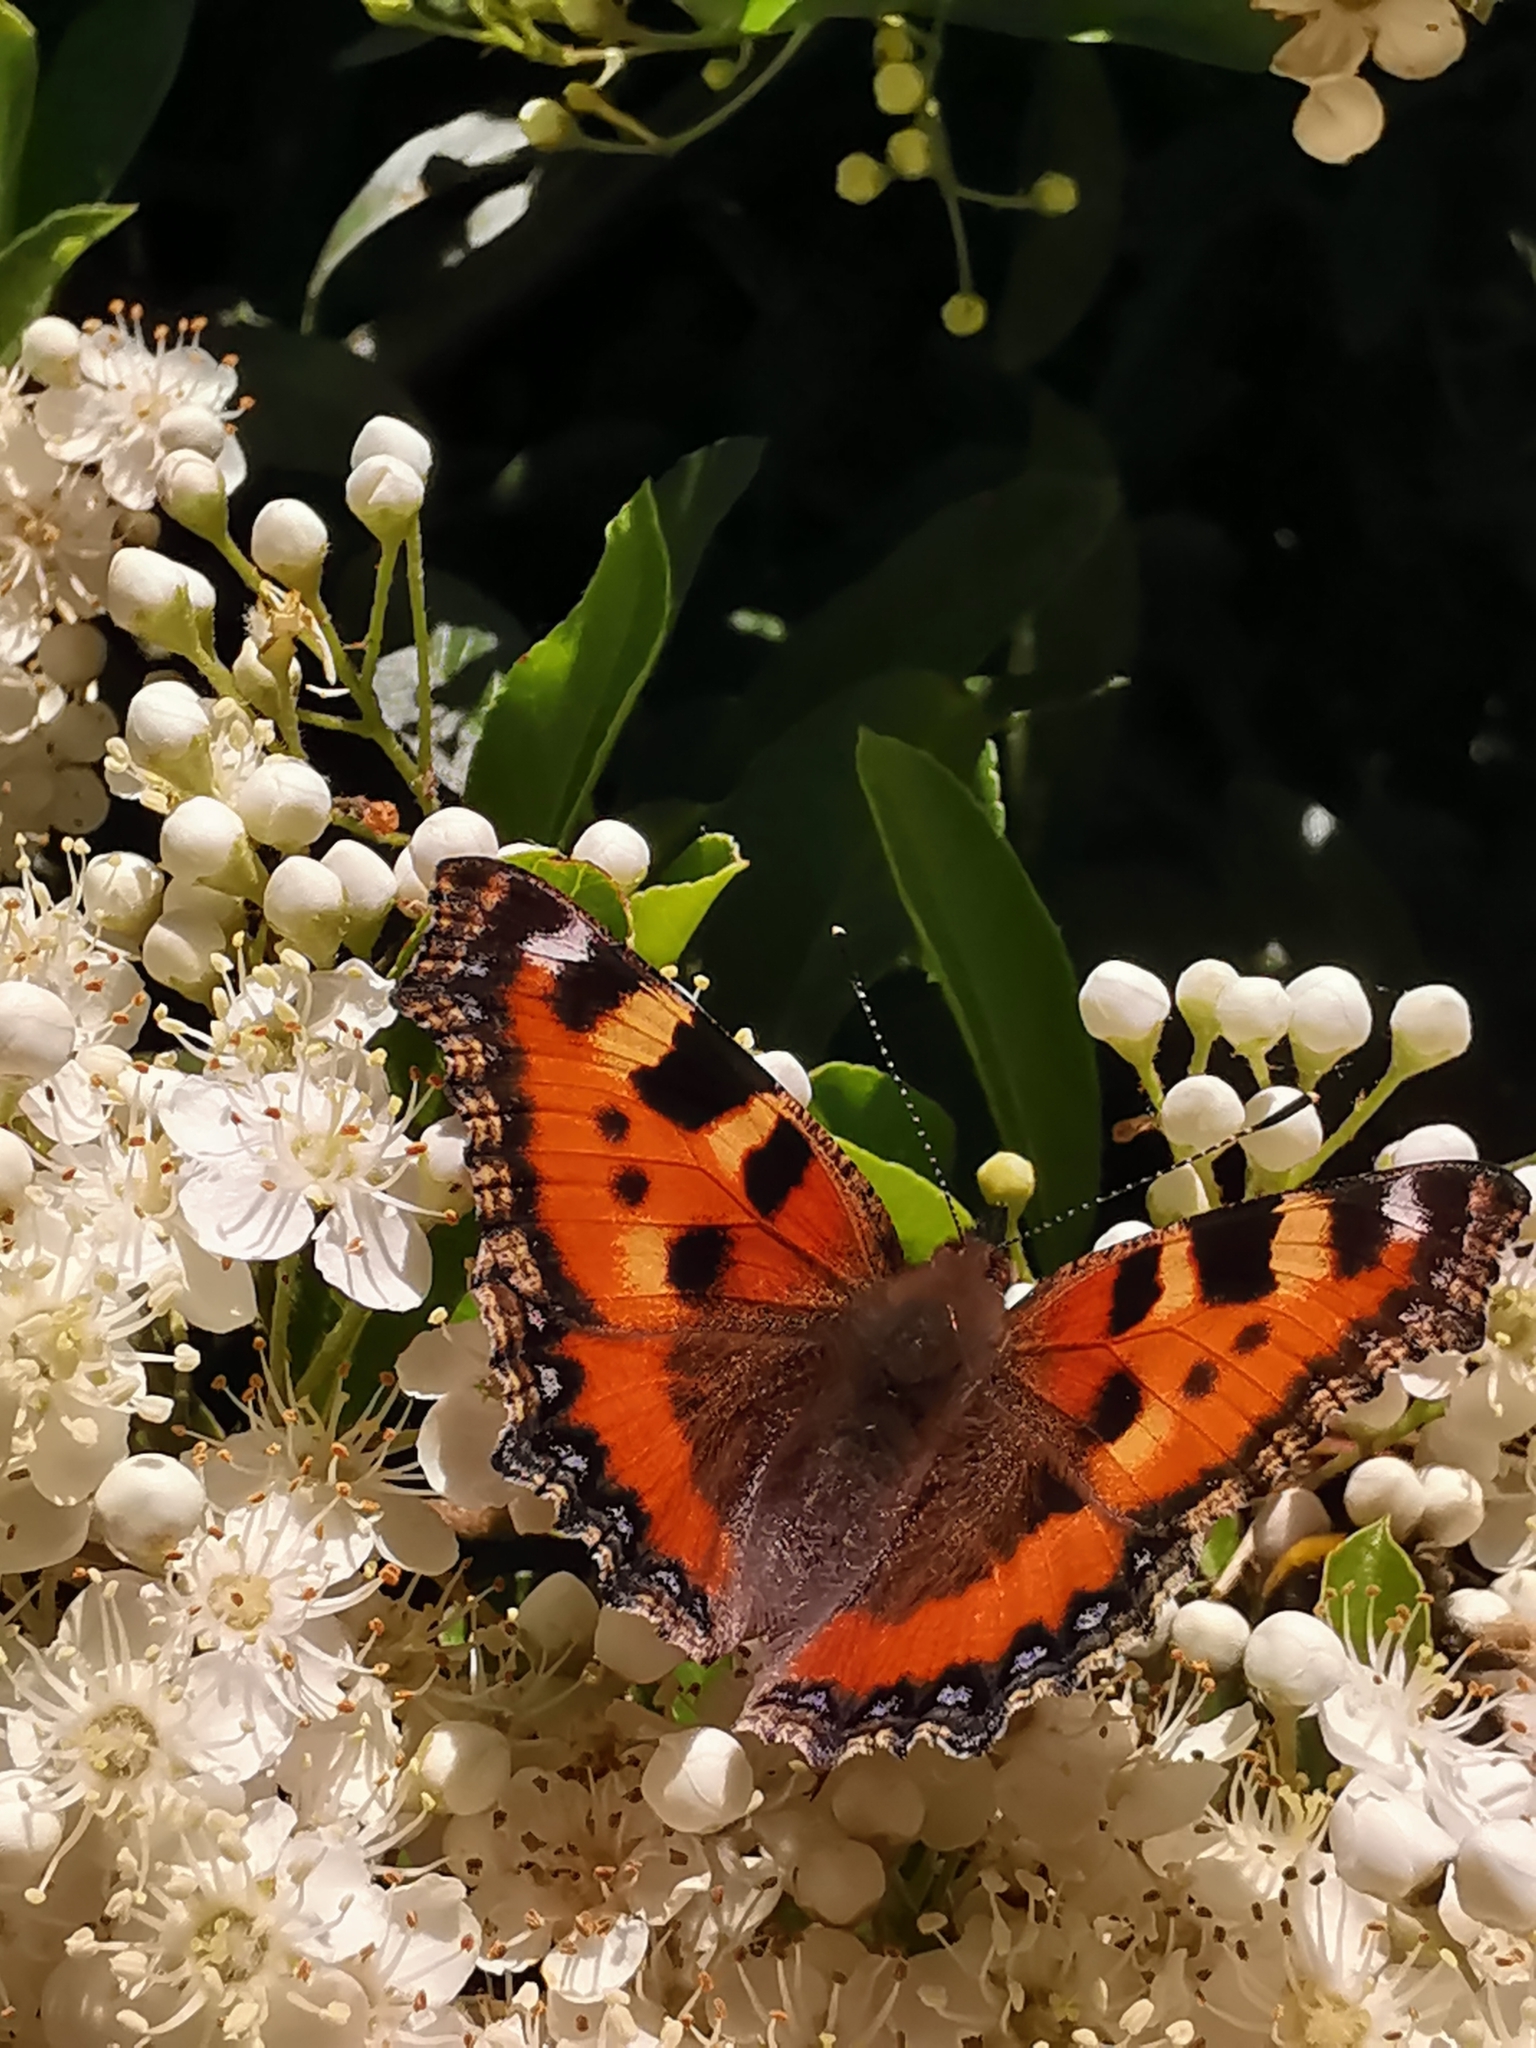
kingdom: Animalia
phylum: Arthropoda
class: Insecta
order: Lepidoptera
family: Nymphalidae
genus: Aglais
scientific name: Aglais urticae
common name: Small tortoiseshell
